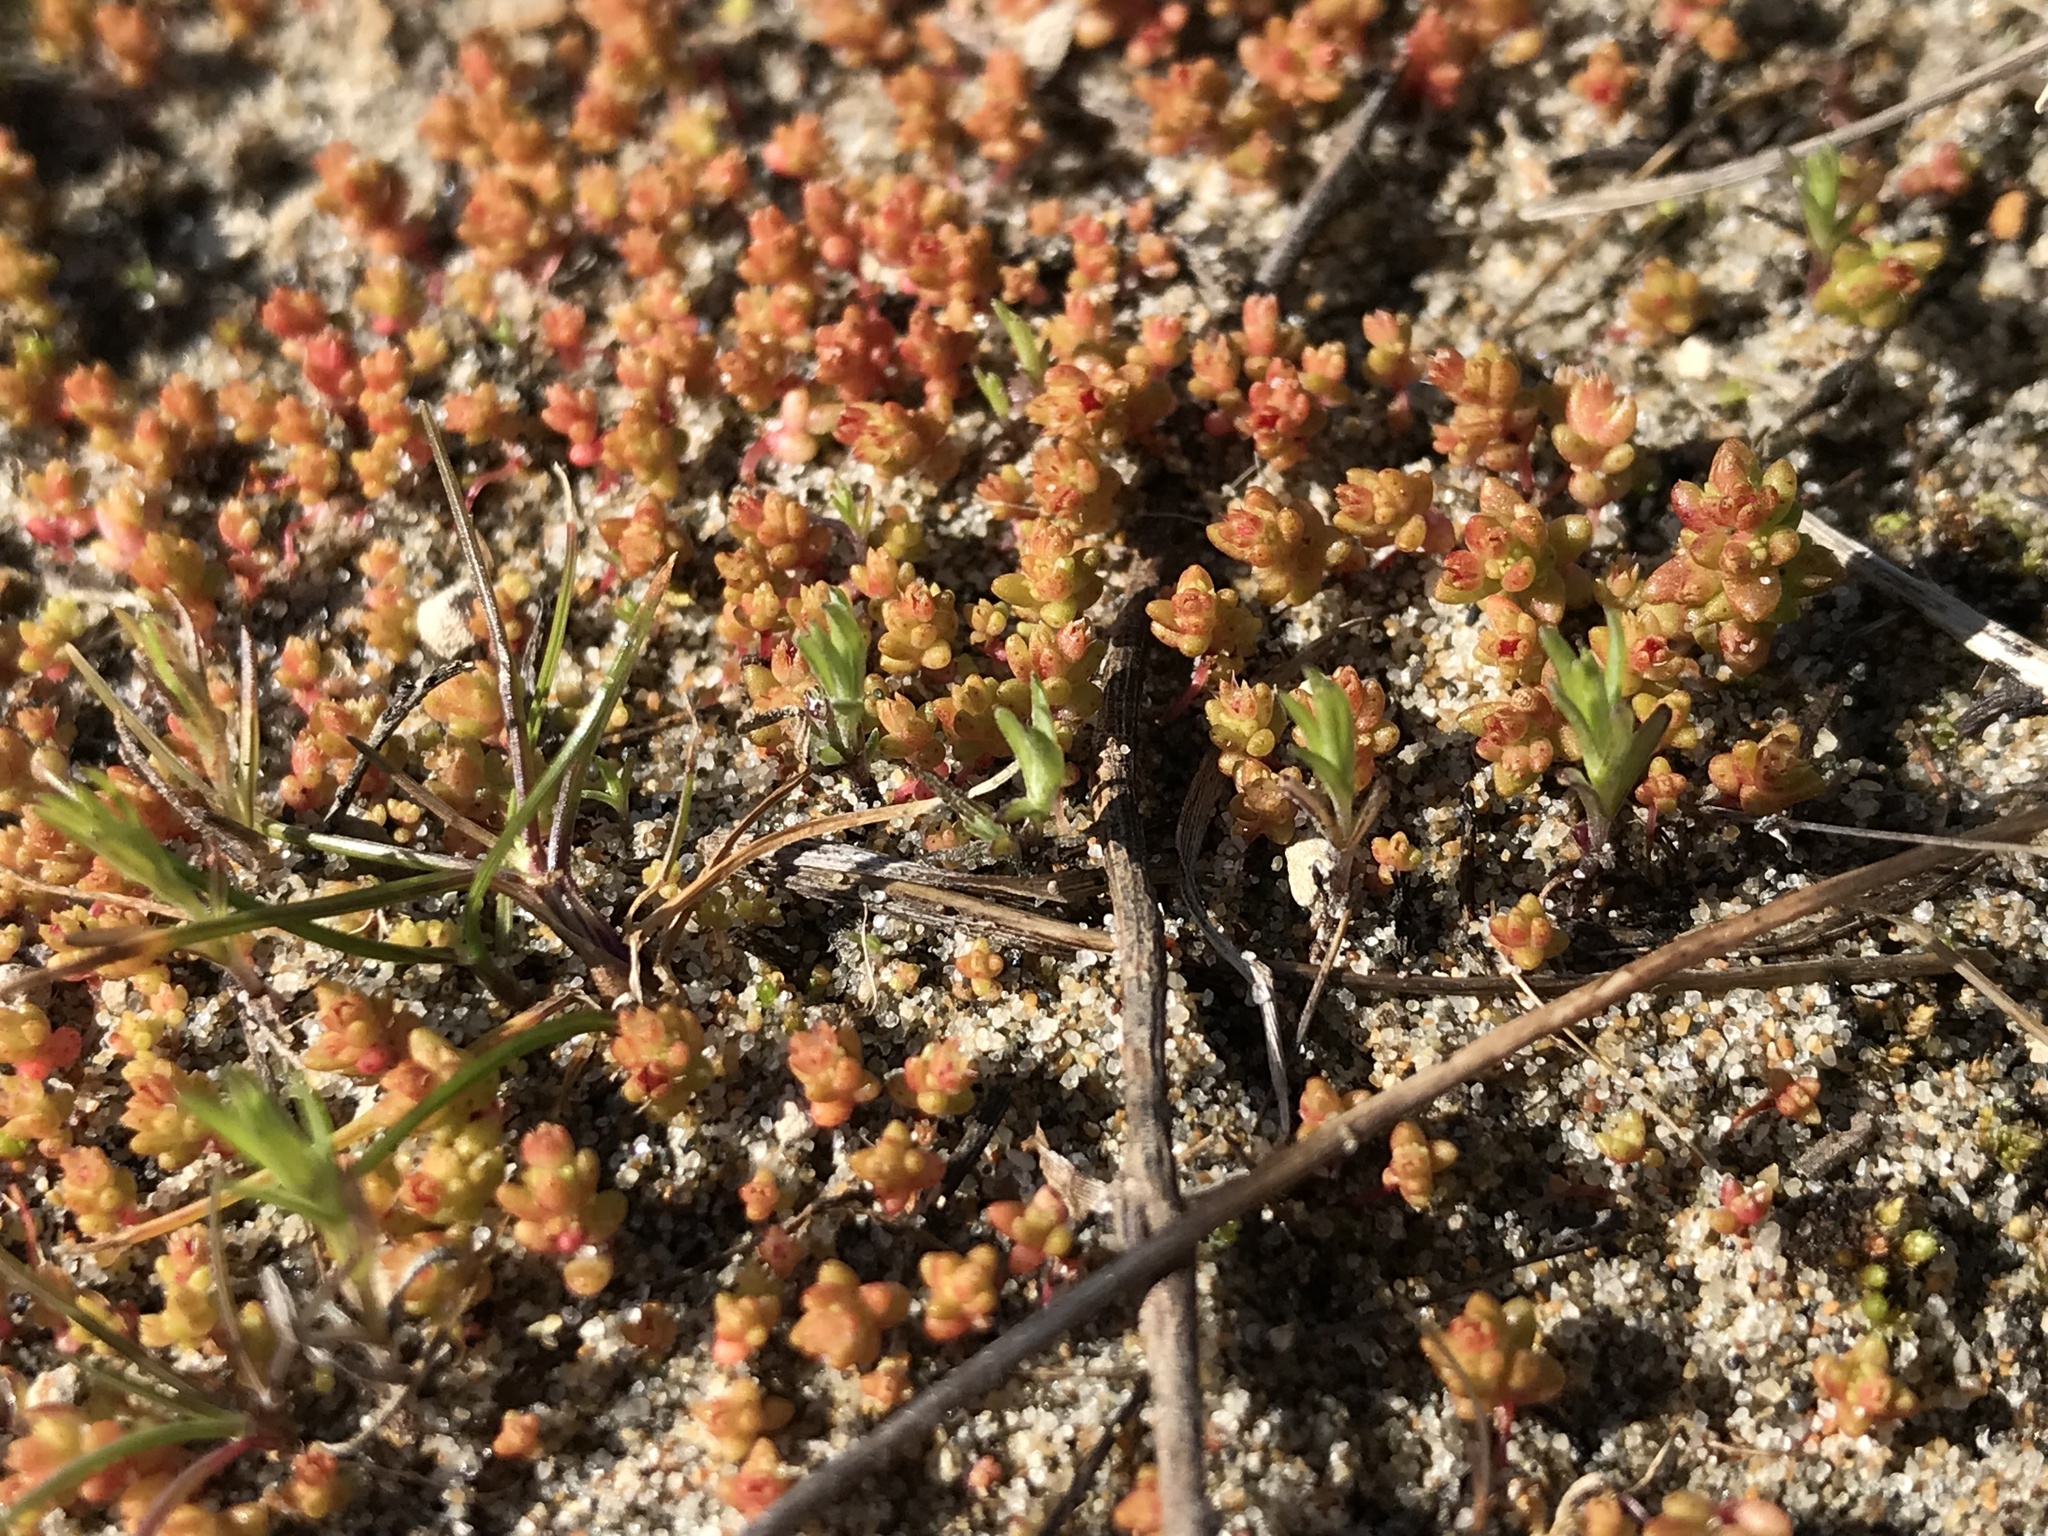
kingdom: Plantae
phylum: Tracheophyta
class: Magnoliopsida
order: Saxifragales
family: Crassulaceae
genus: Crassula
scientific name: Crassula connata
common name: Erect pygmyweed
